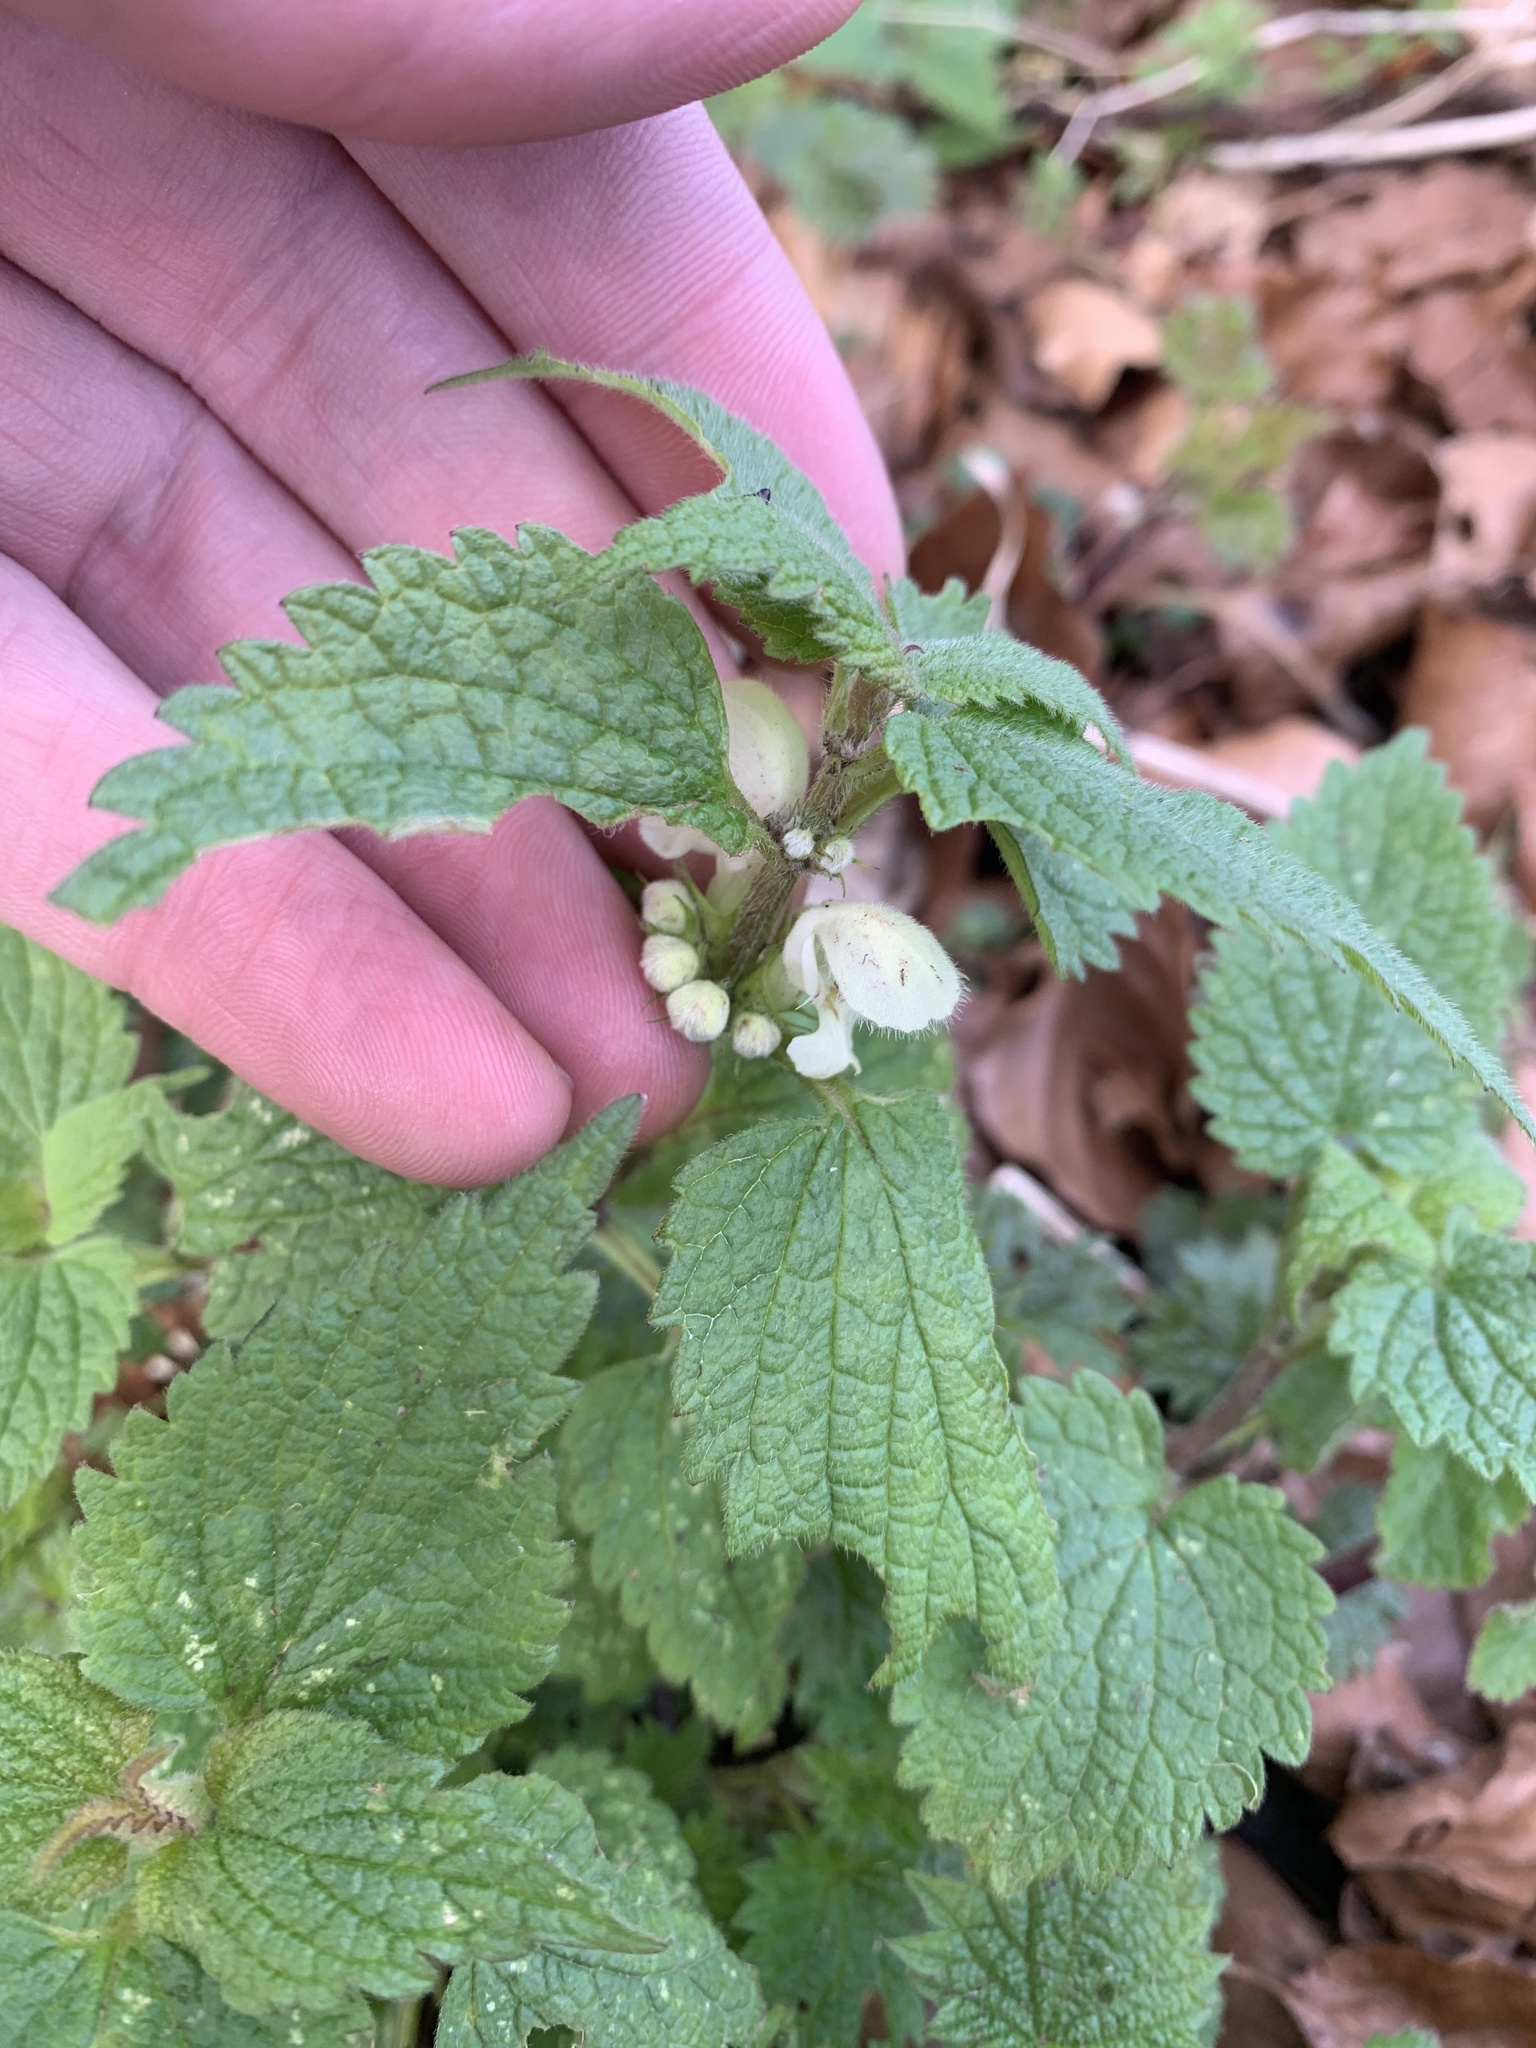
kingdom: Plantae
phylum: Tracheophyta
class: Magnoliopsida
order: Lamiales
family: Lamiaceae
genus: Lamium
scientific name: Lamium album
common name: White dead-nettle
